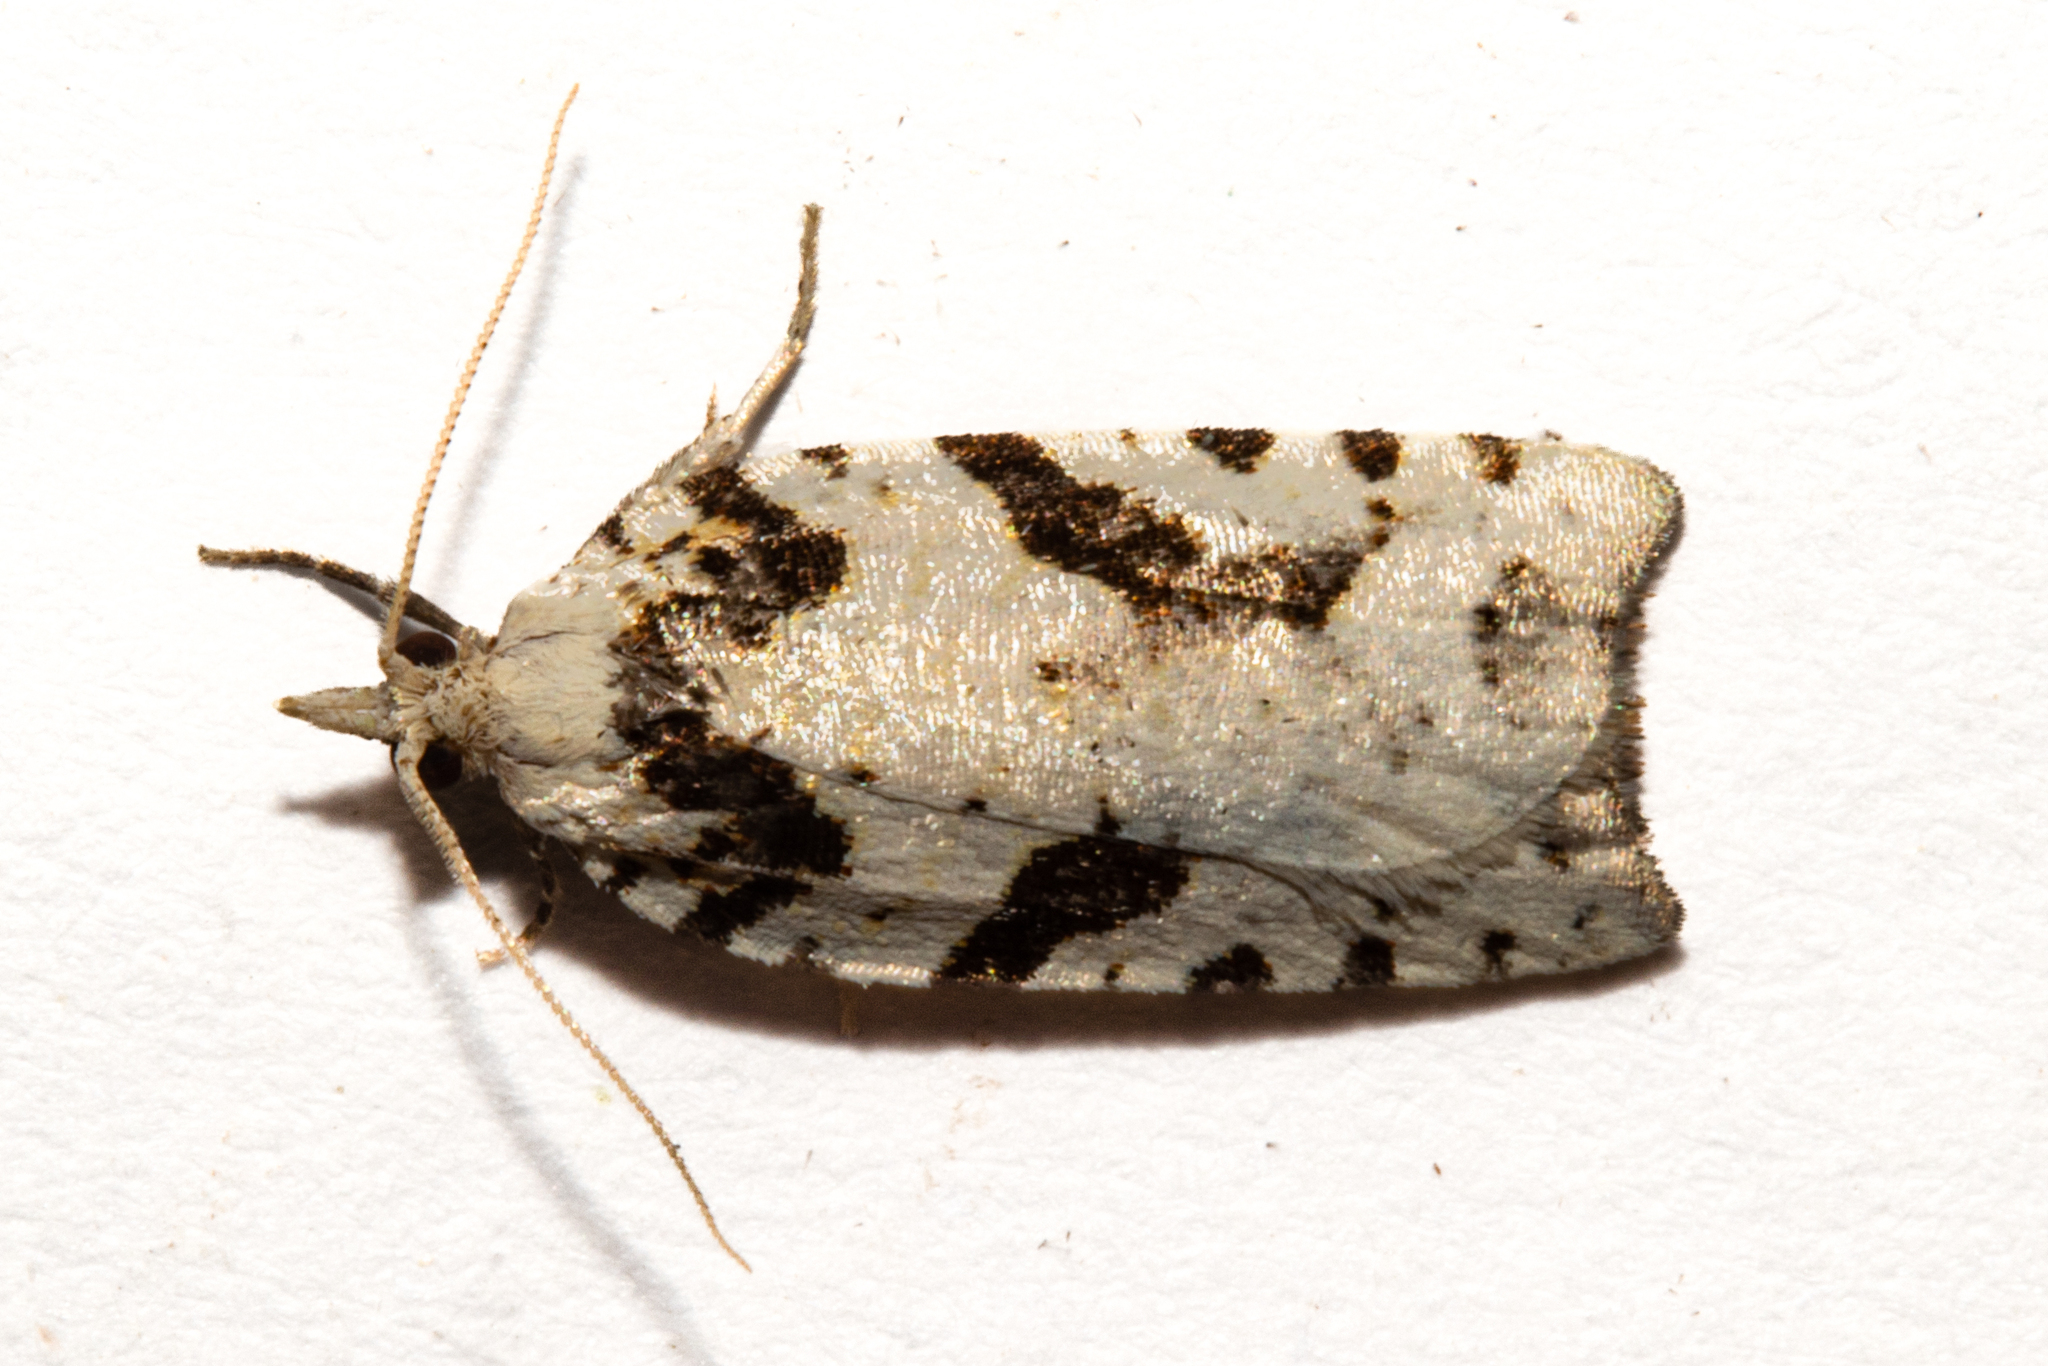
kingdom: Animalia
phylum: Arthropoda
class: Insecta
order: Lepidoptera
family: Tortricidae
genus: Leucotenes
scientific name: Leucotenes coprosmae
